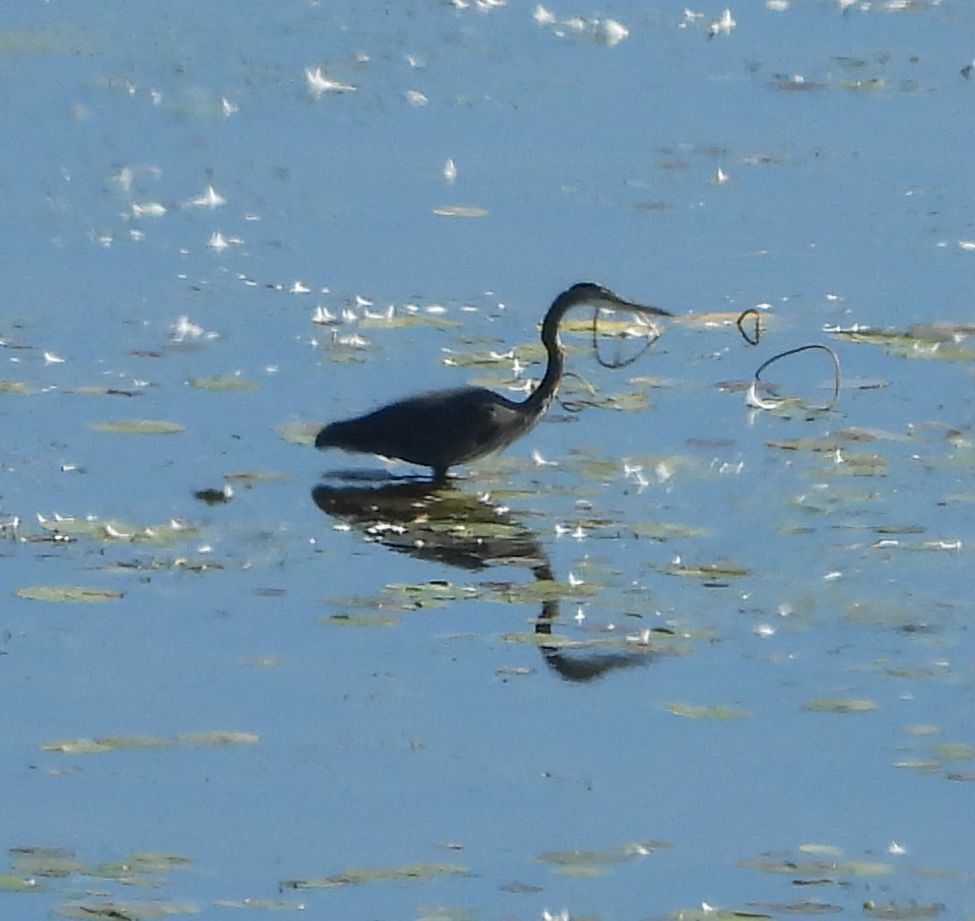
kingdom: Animalia
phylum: Chordata
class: Aves
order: Pelecaniformes
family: Ardeidae
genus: Ardea
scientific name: Ardea herodias
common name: Great blue heron
